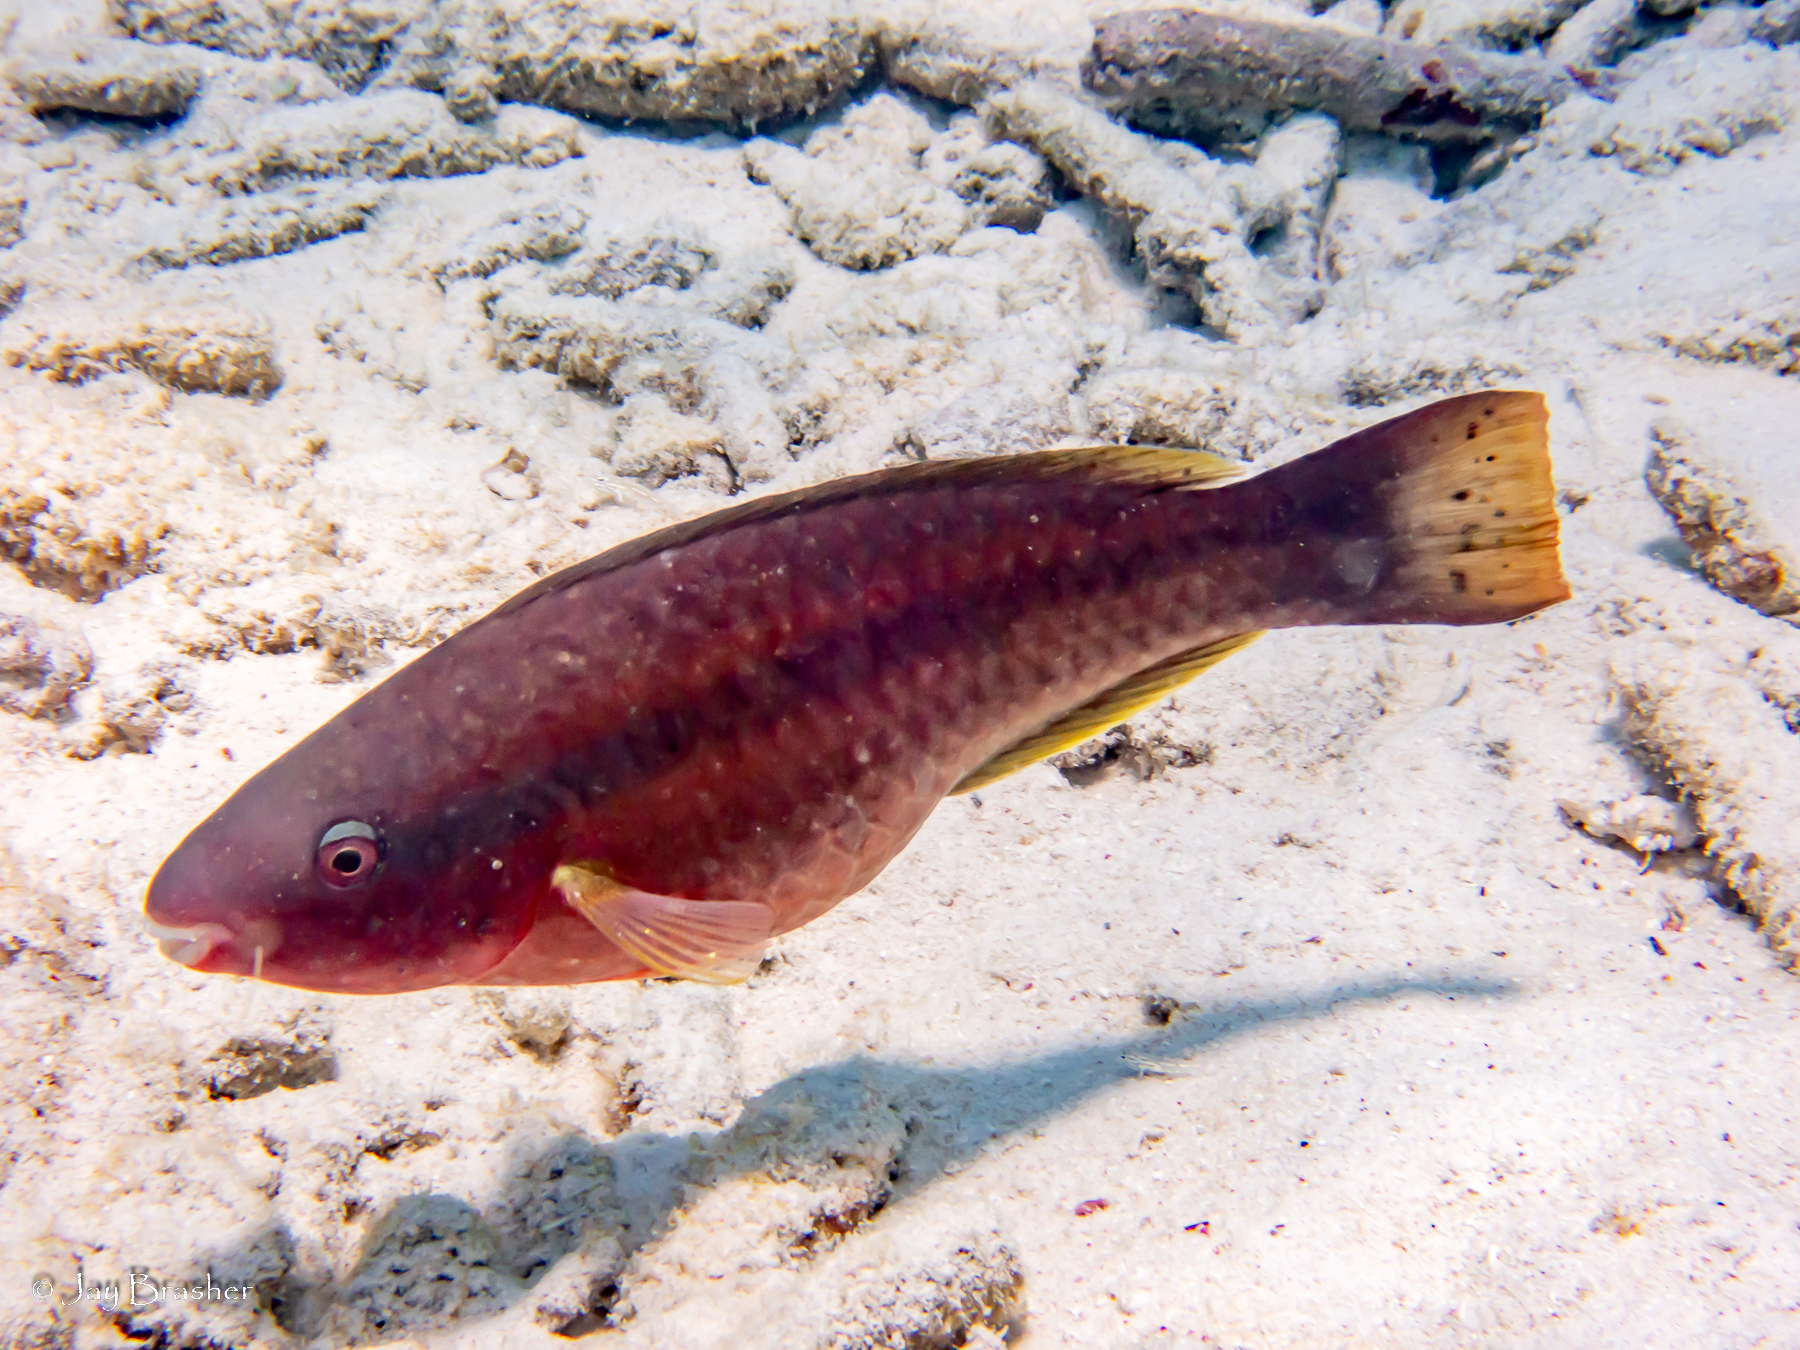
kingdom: Animalia
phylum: Chordata
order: Perciformes
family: Scaridae
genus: Scarus
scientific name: Scarus taeniopterus
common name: Princess parrotfish
